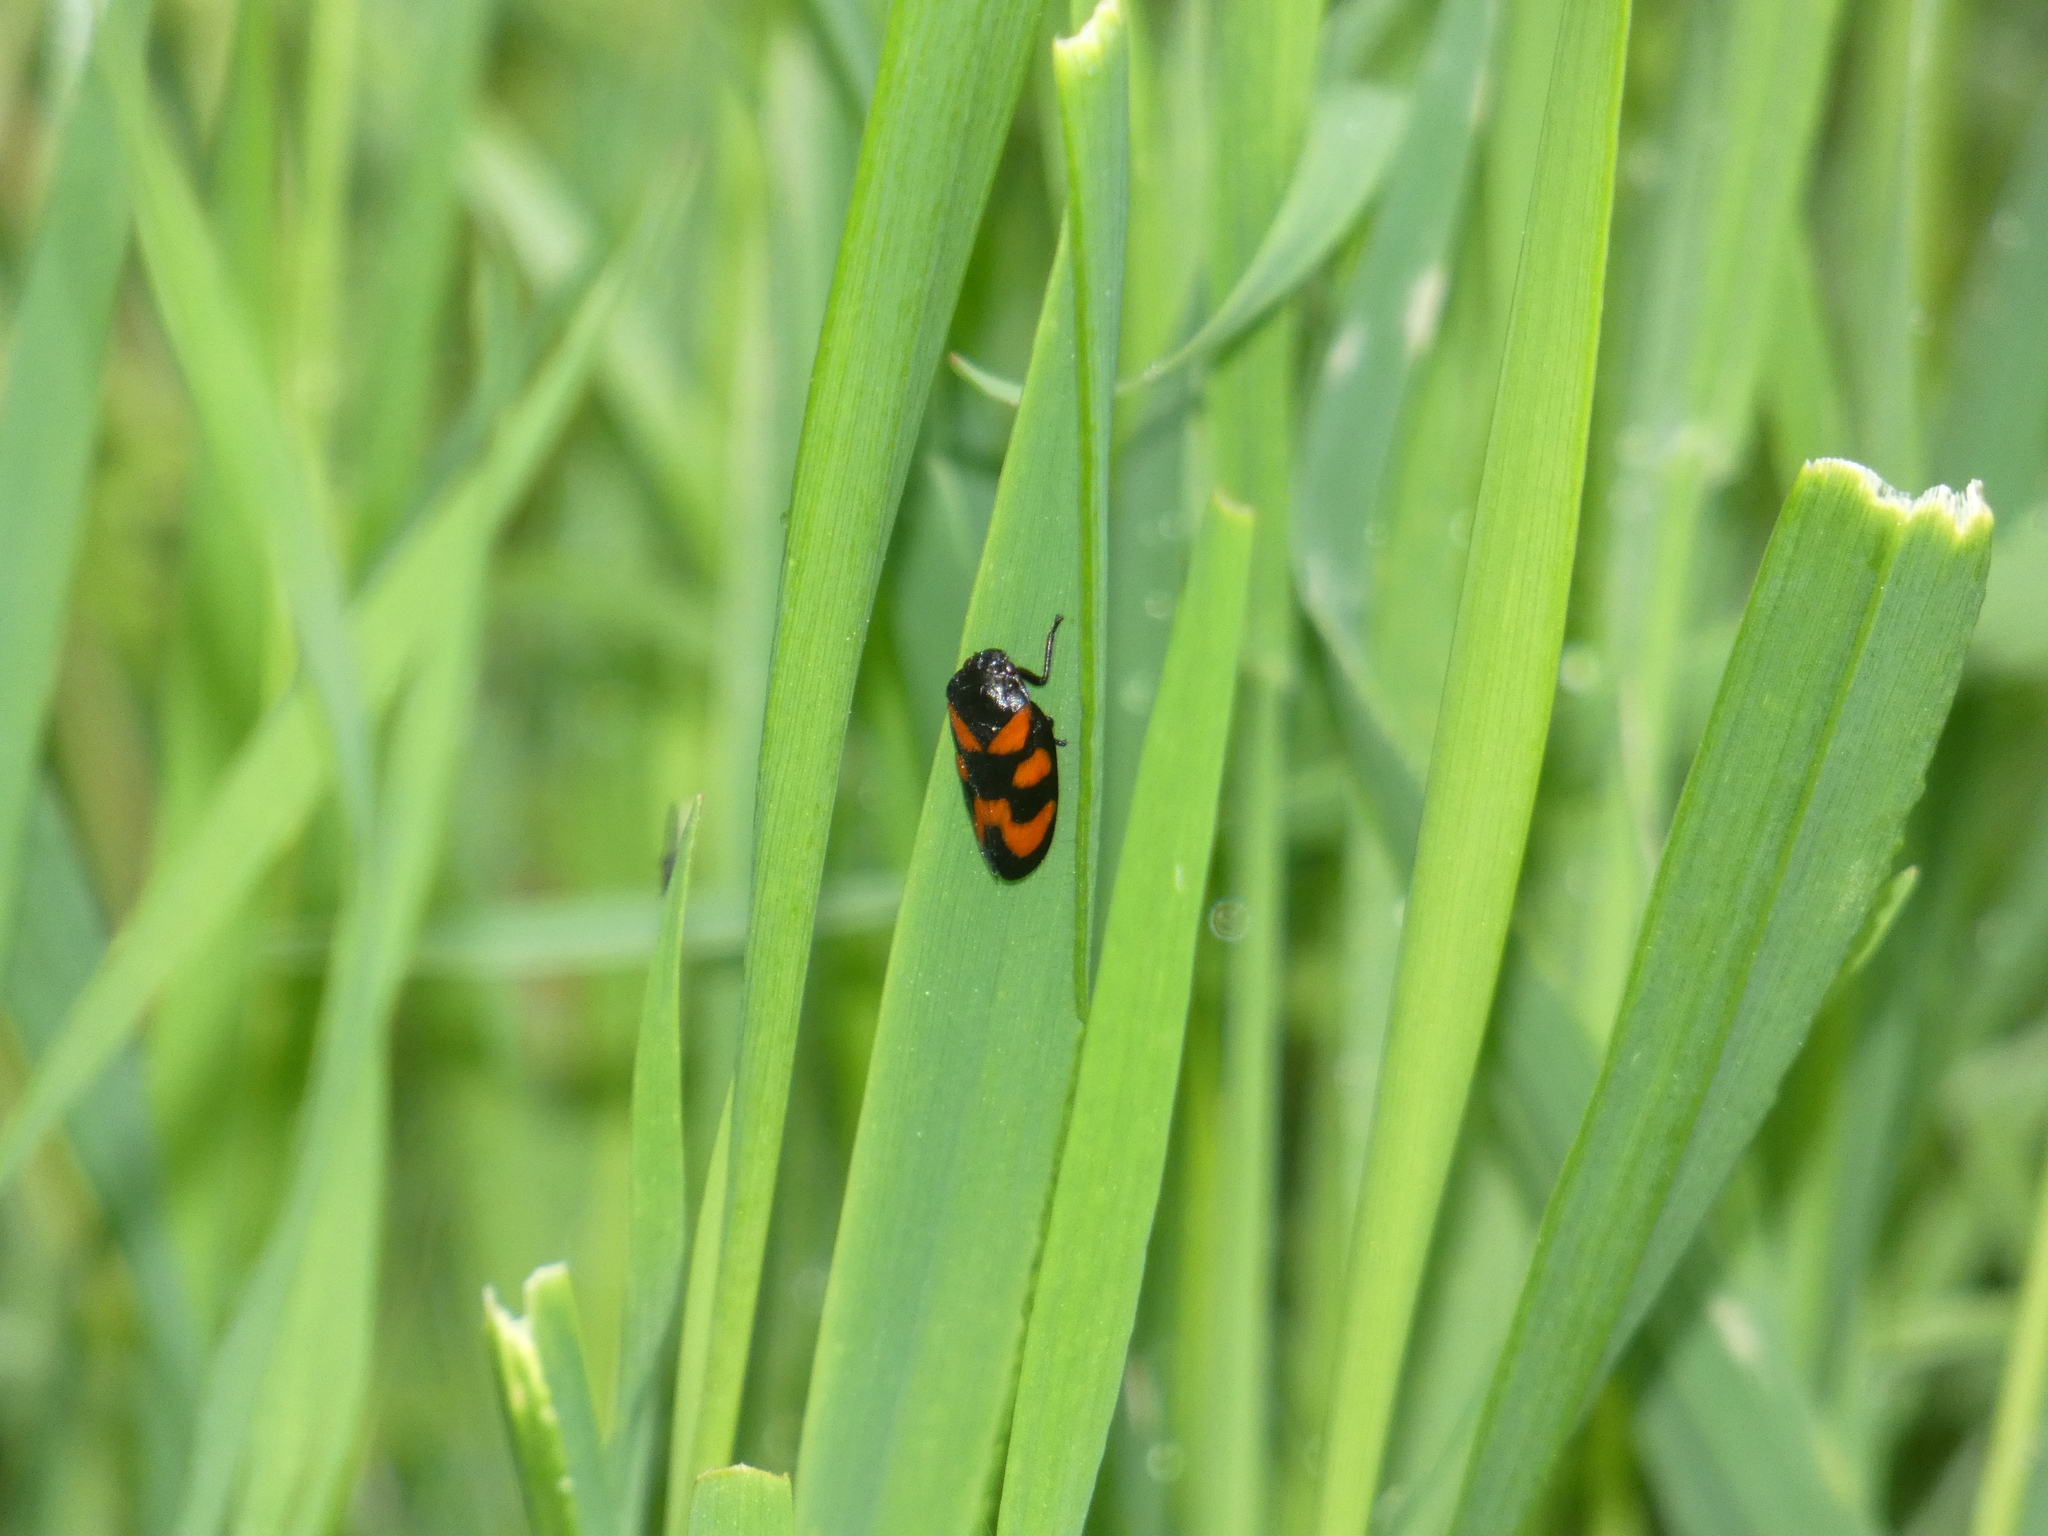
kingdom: Animalia
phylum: Arthropoda
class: Insecta
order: Hemiptera
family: Cercopidae
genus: Cercopis
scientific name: Cercopis vulnerata
